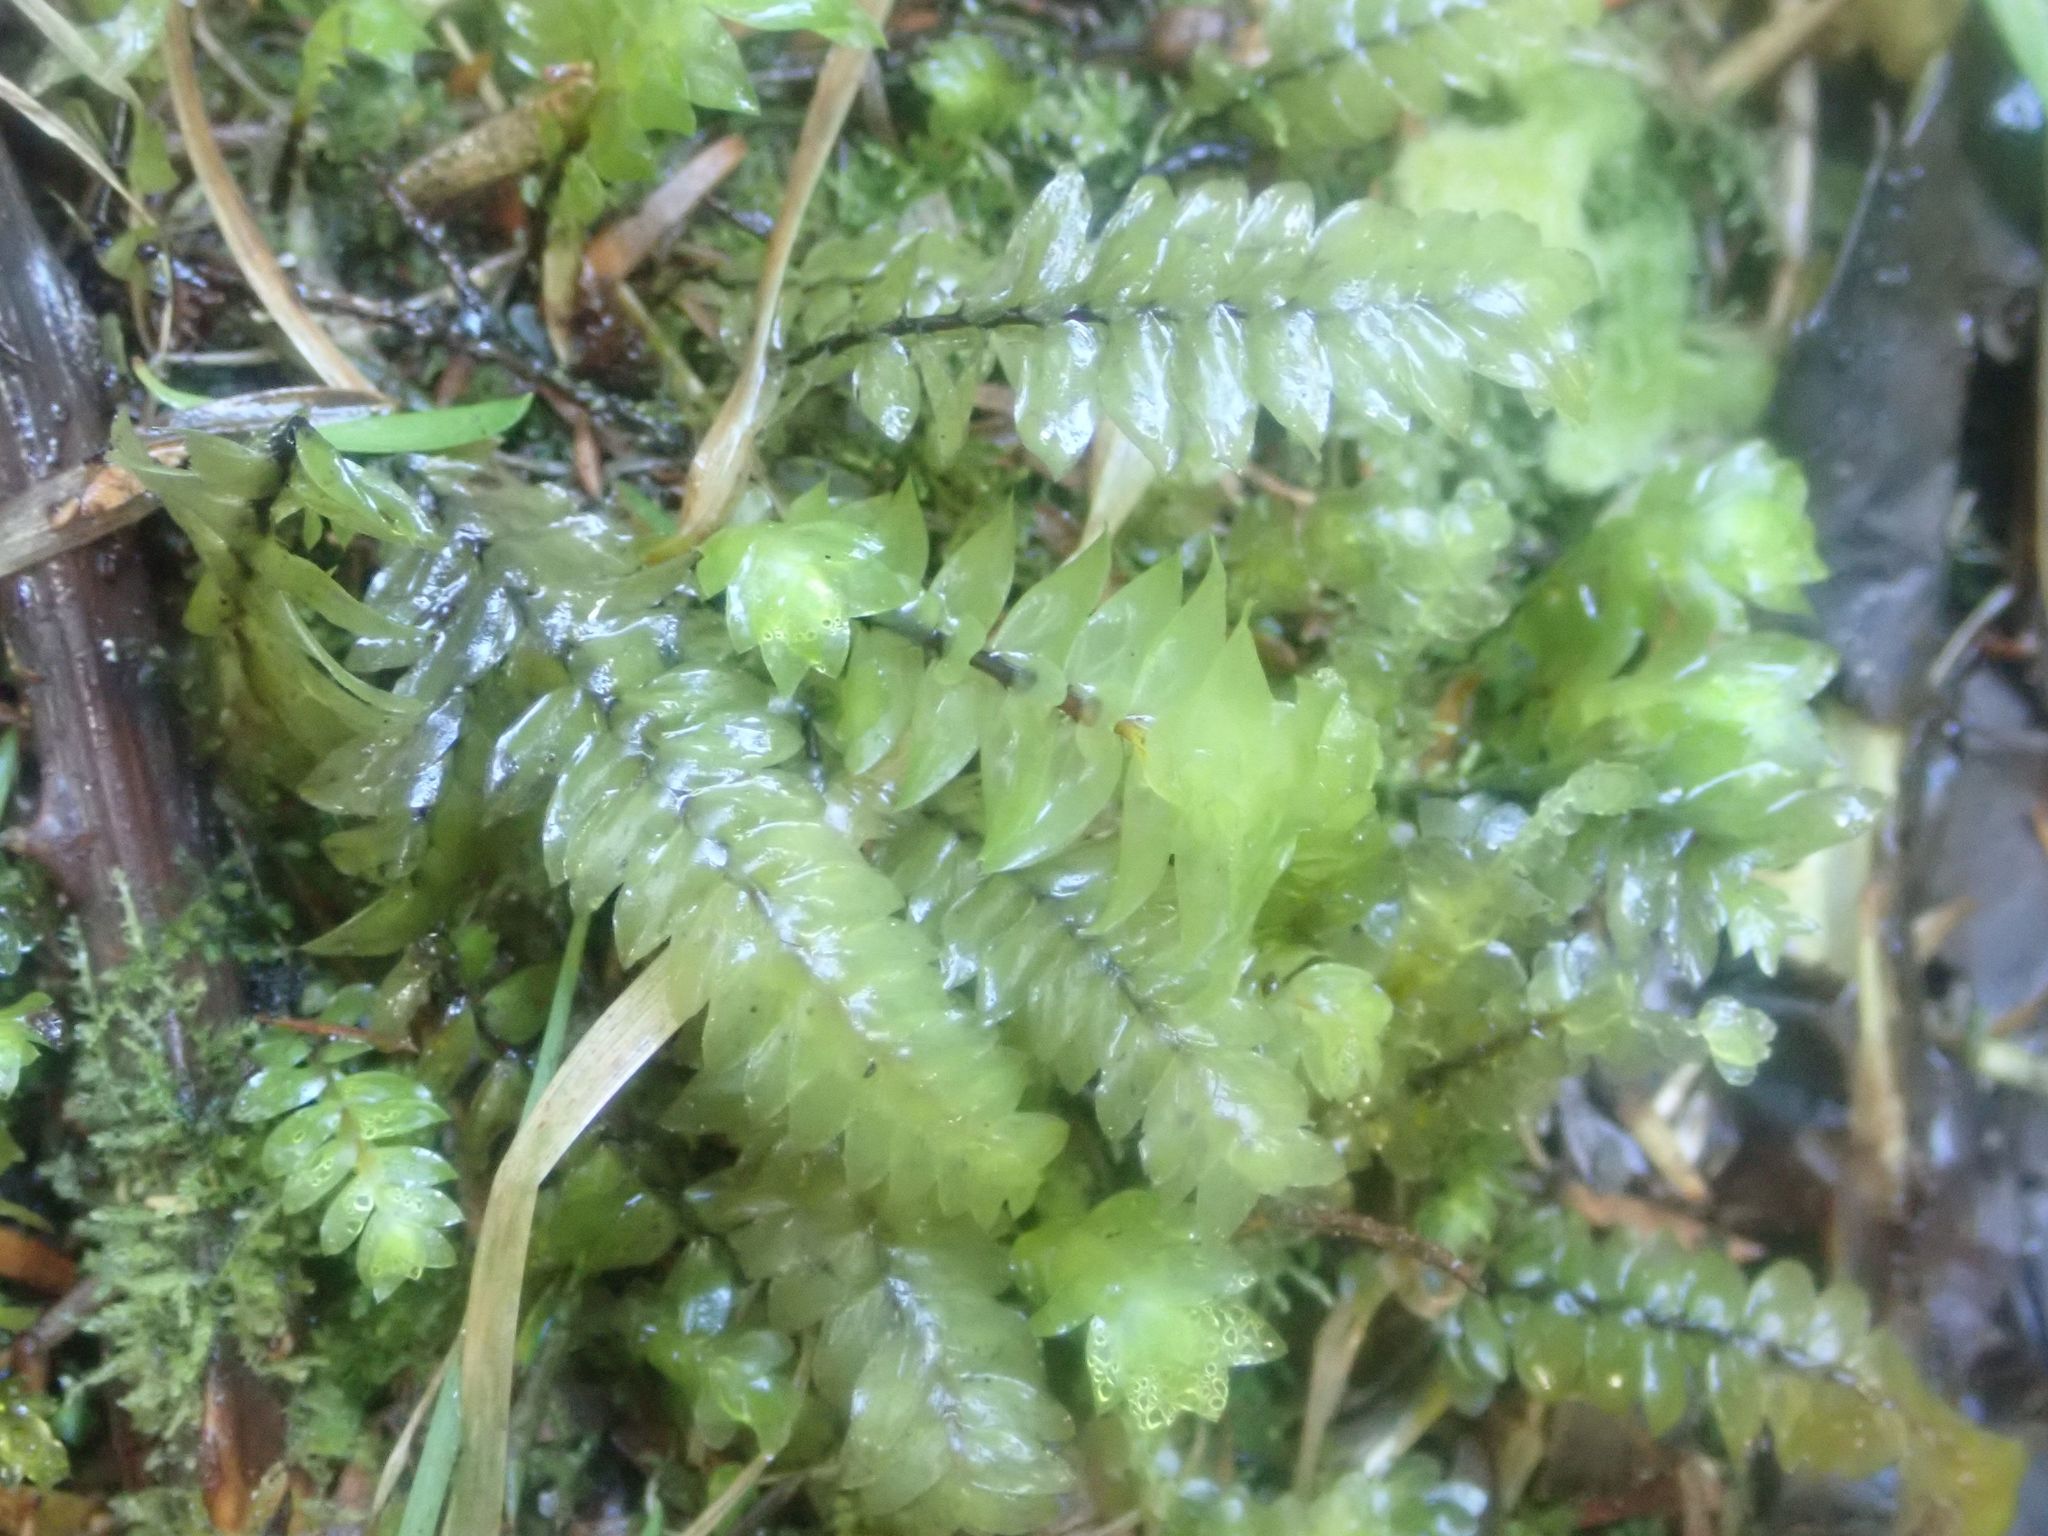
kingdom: Plantae
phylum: Bryophyta
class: Bryopsida
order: Hypopterygiales
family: Hypopterygiaceae
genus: Cyathophorum
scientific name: Cyathophorum bulbosum
